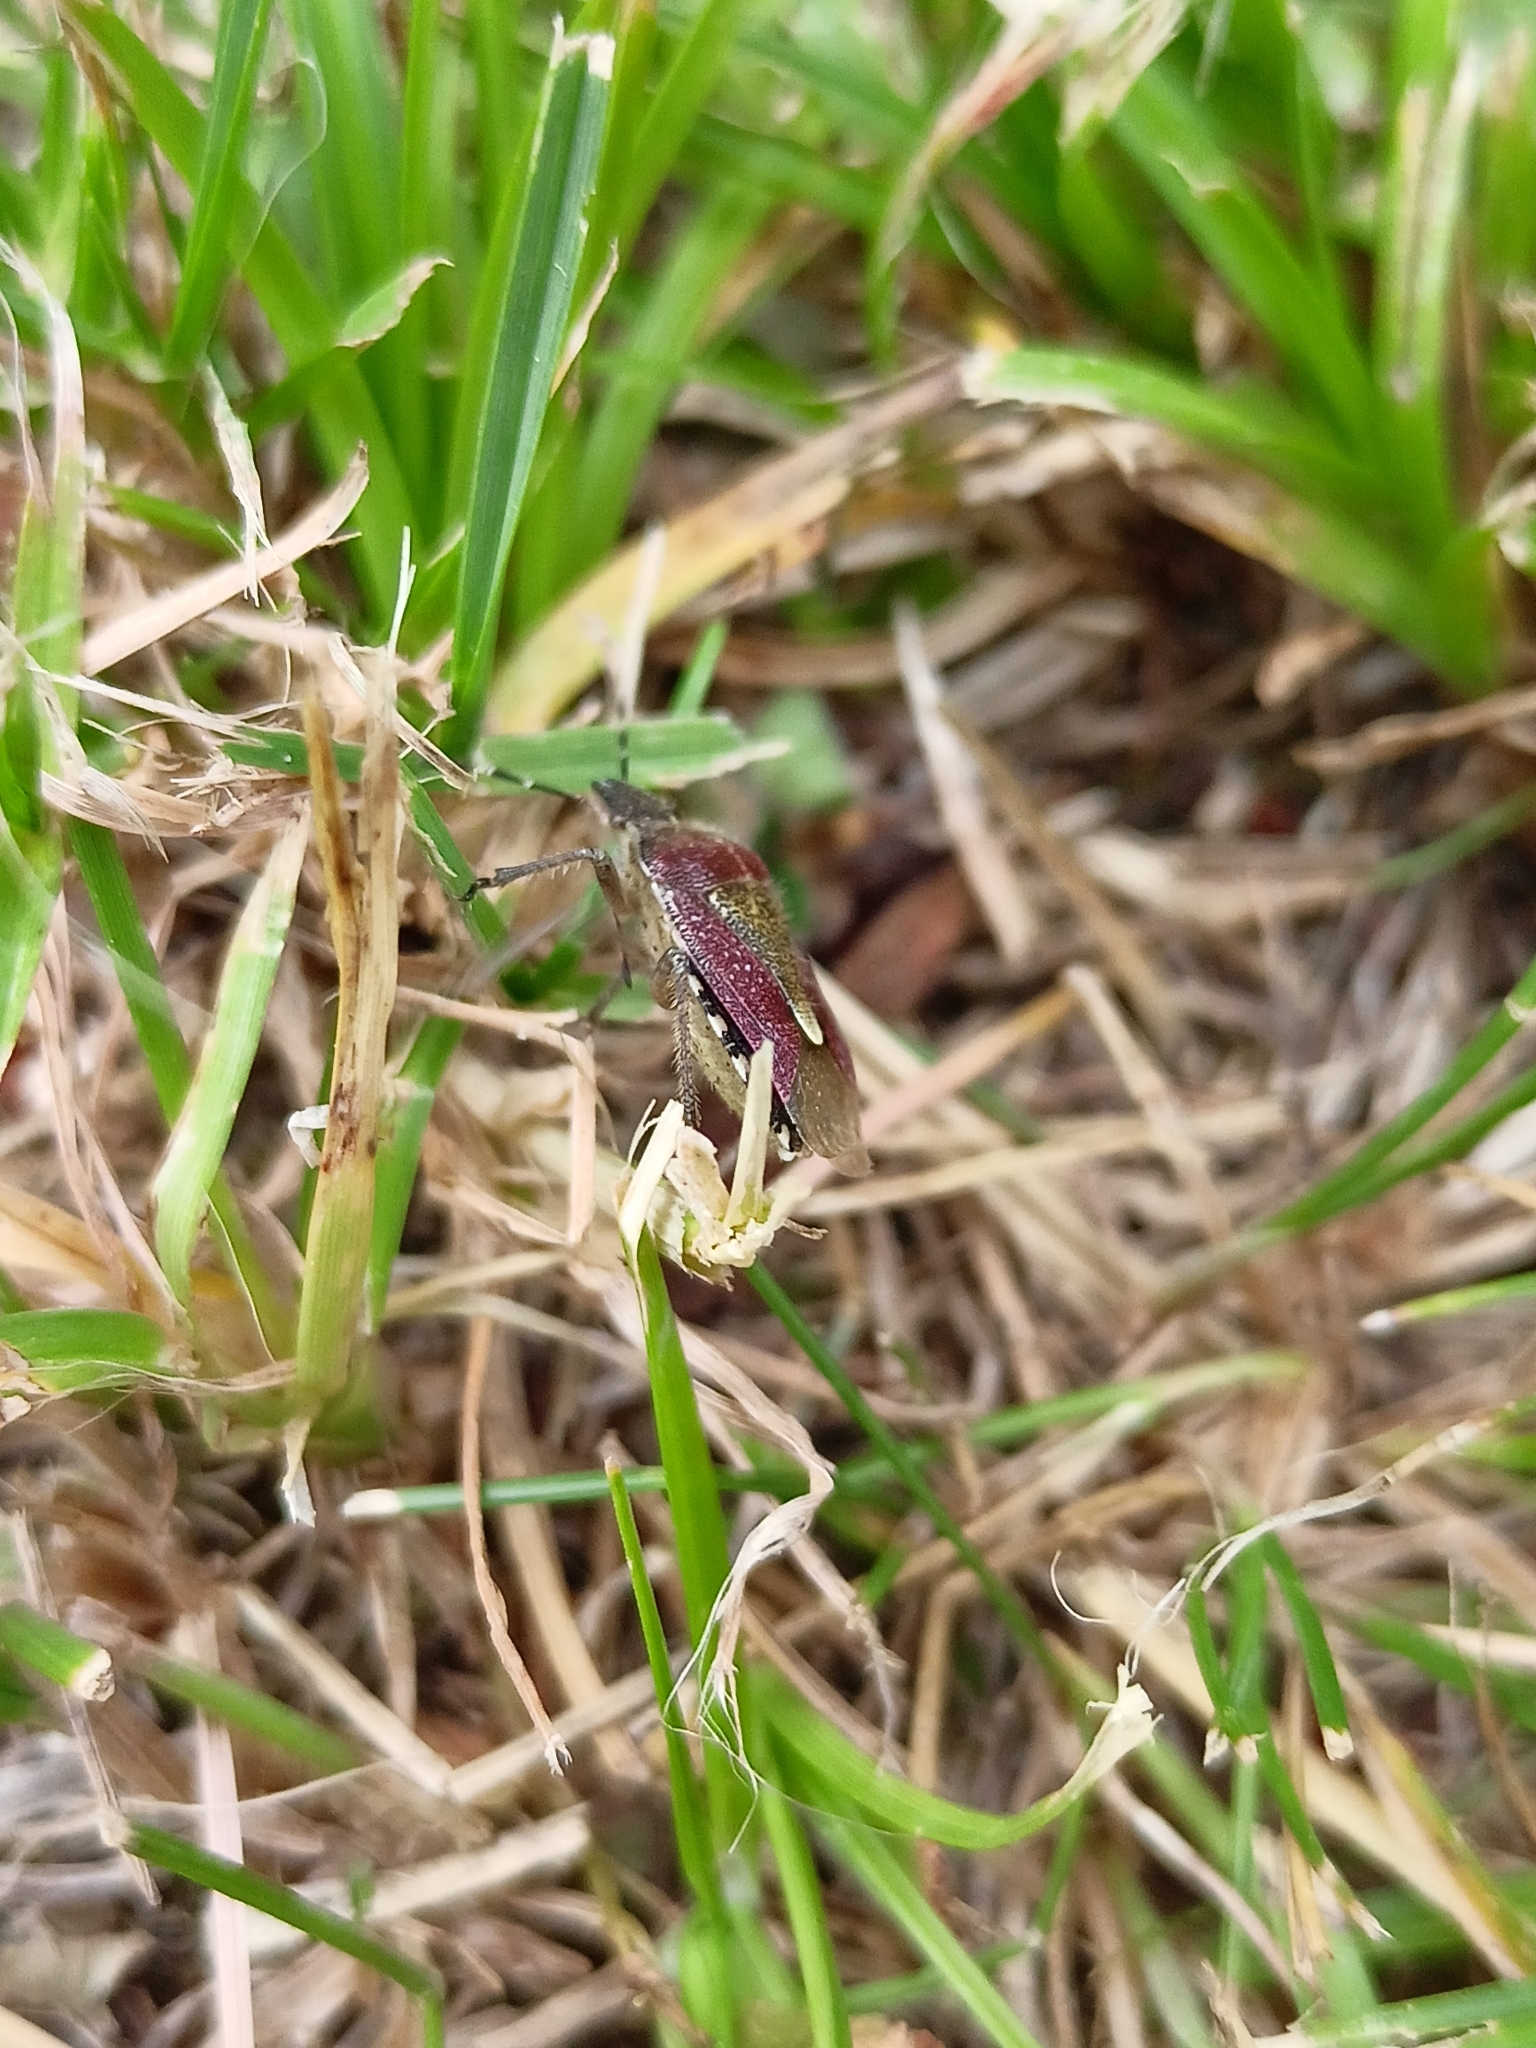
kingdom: Animalia
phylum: Arthropoda
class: Insecta
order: Hemiptera
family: Pentatomidae
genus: Dolycoris
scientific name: Dolycoris baccarum
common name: Sloe bug
